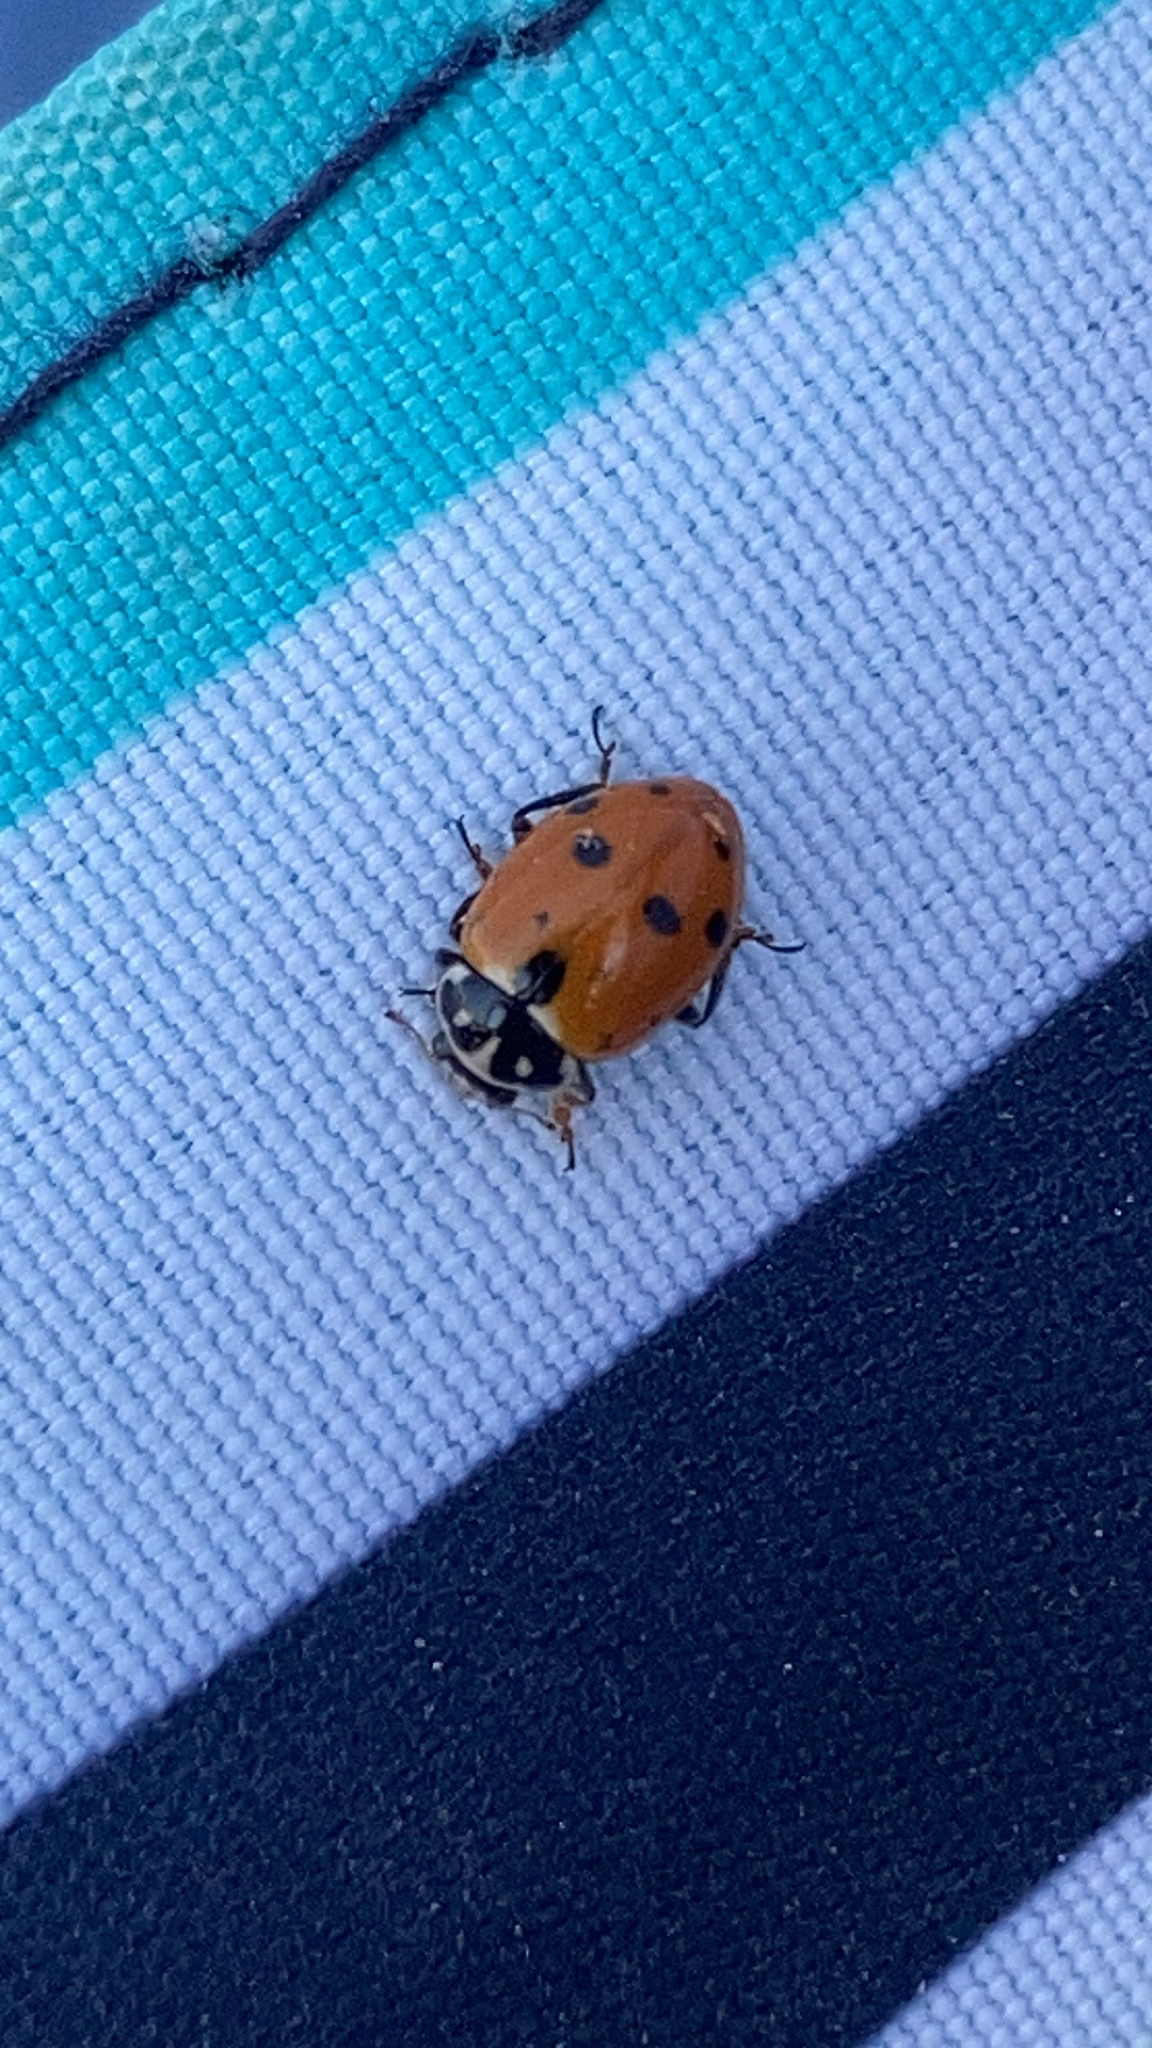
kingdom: Animalia
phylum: Arthropoda
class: Insecta
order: Coleoptera
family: Coccinellidae
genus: Hippodamia
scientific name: Hippodamia variegata
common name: Ladybird beetle
